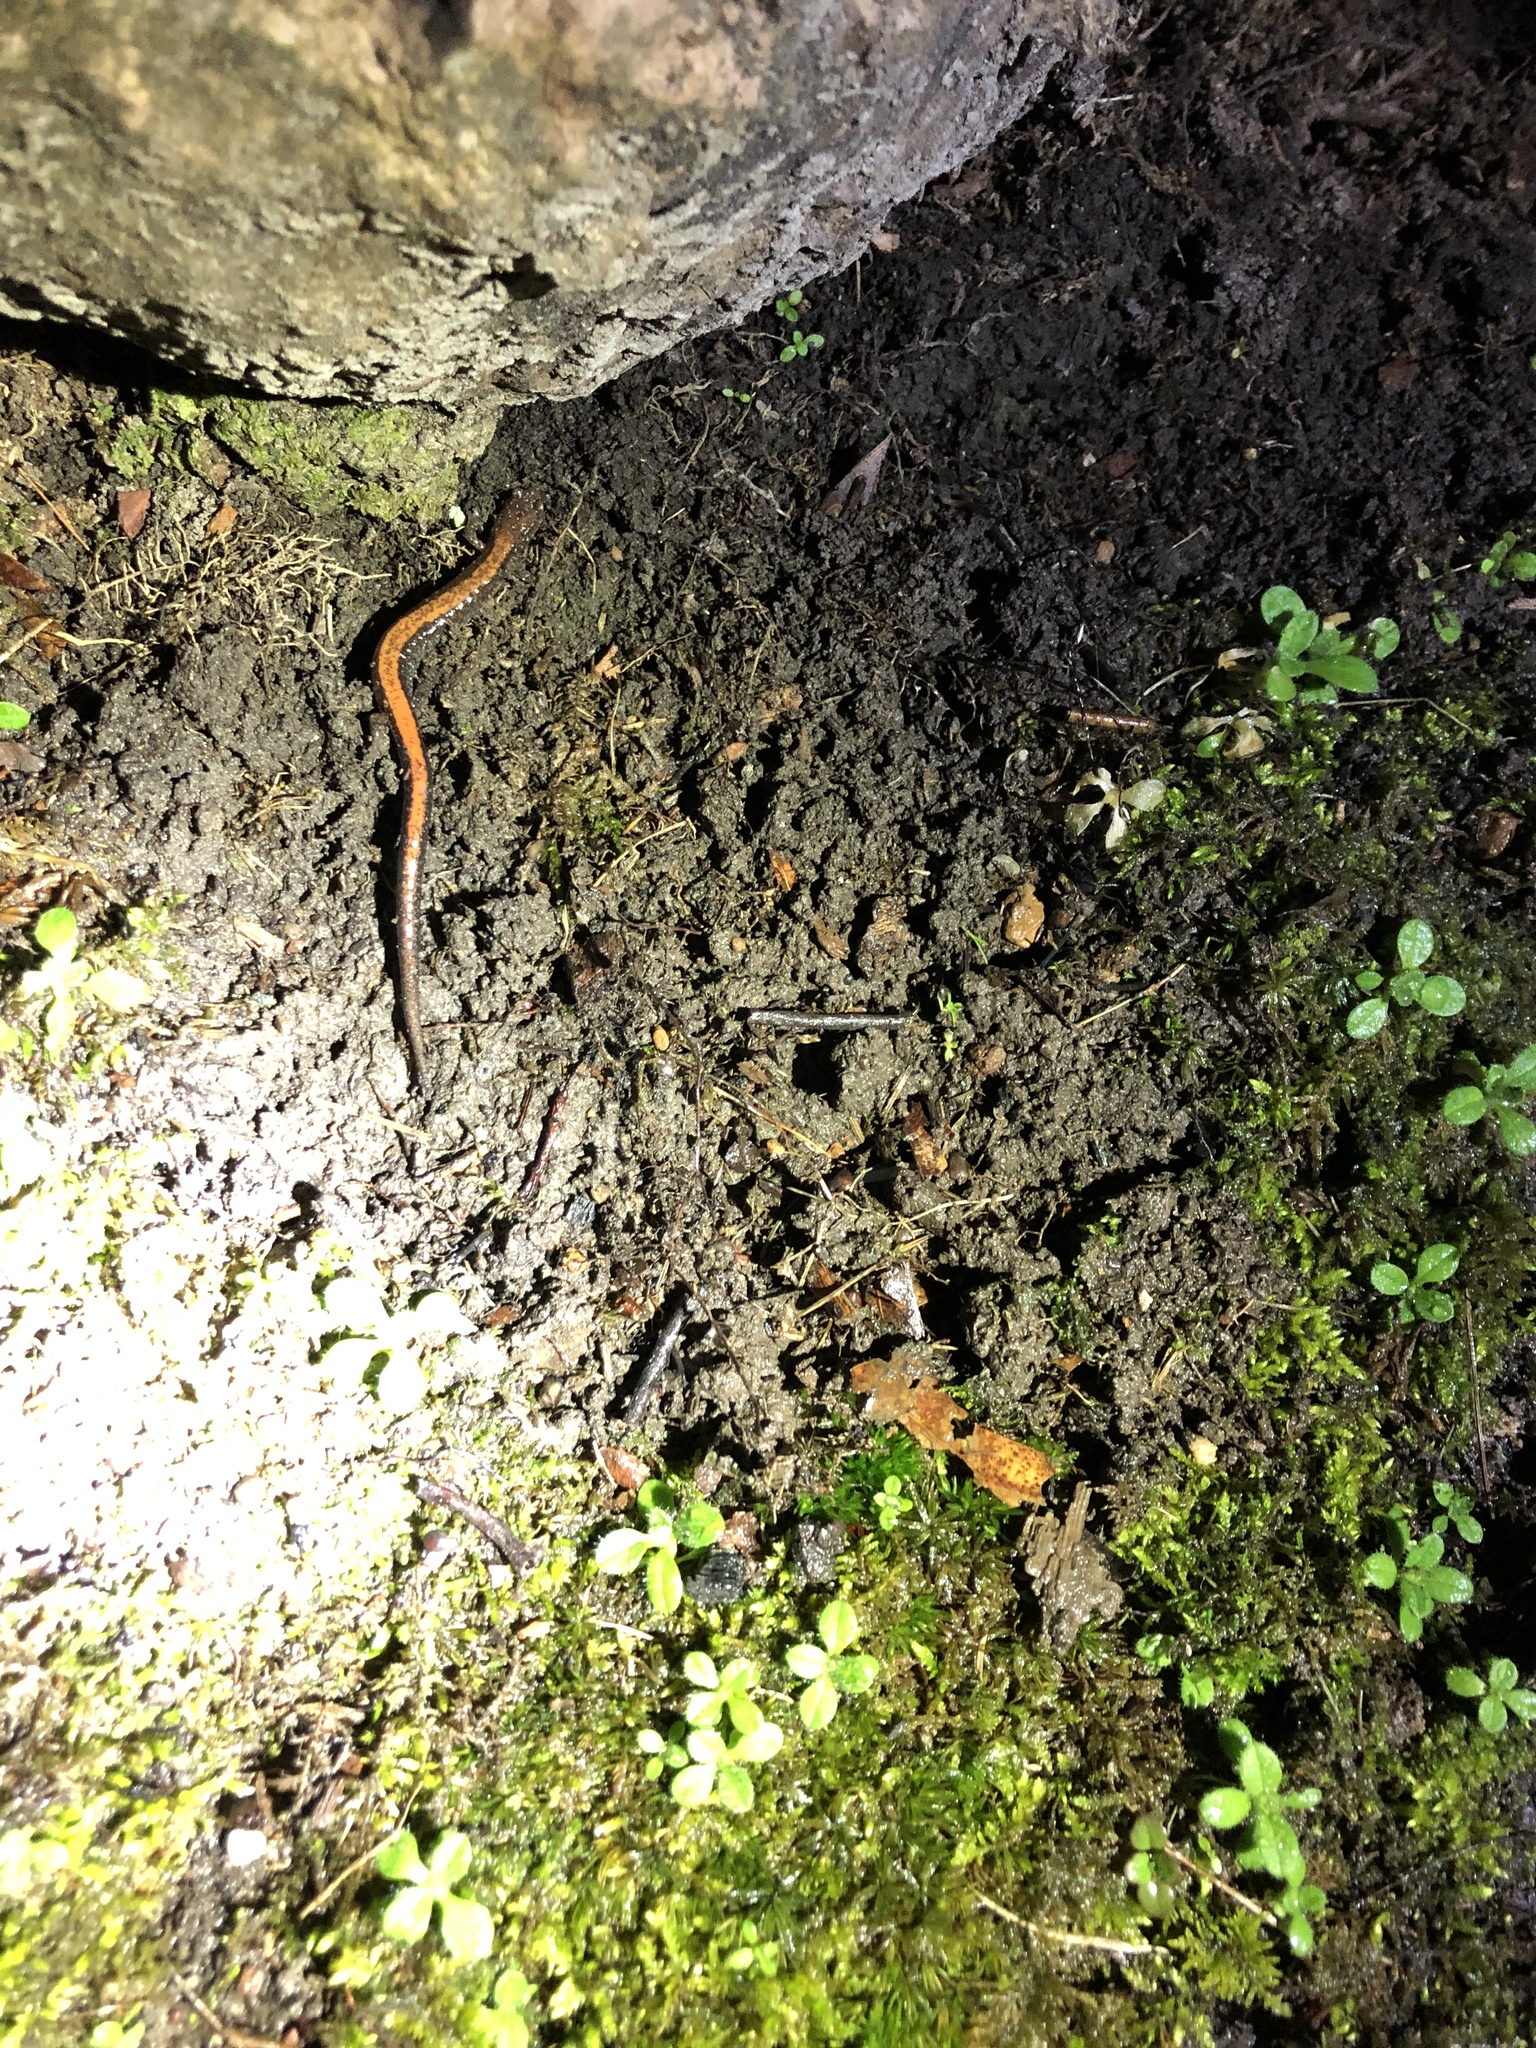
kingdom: Animalia
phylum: Chordata
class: Amphibia
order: Caudata
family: Plethodontidae
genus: Plethodon
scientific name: Plethodon cinereus
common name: Redback salamander
